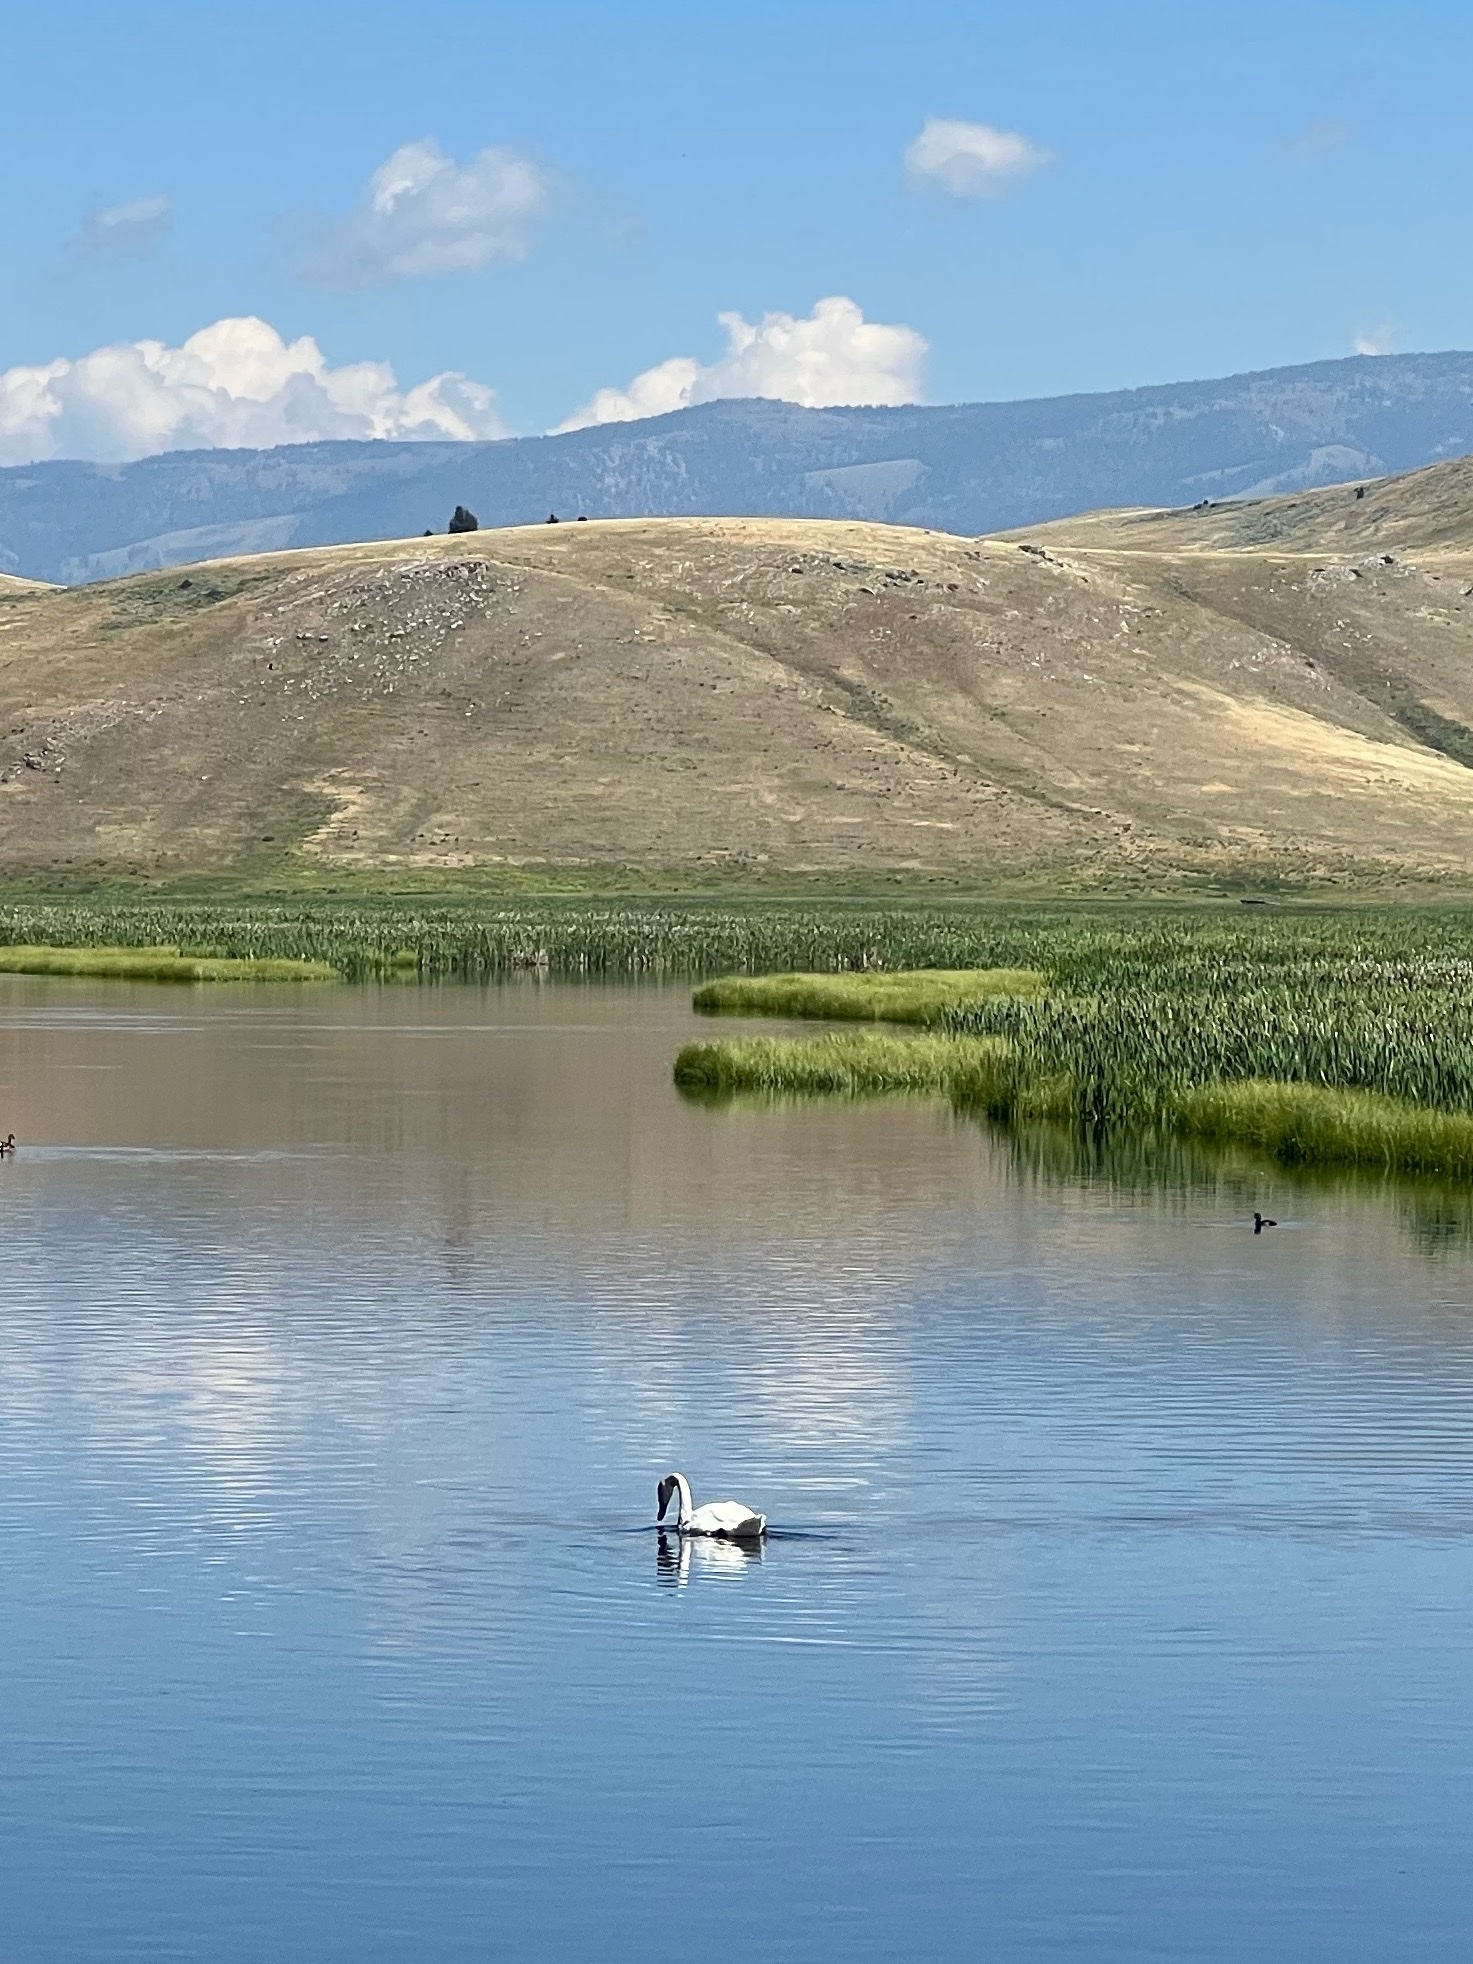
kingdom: Animalia
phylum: Chordata
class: Aves
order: Anseriformes
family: Anatidae
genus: Cygnus
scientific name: Cygnus buccinator
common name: Trumpeter swan
